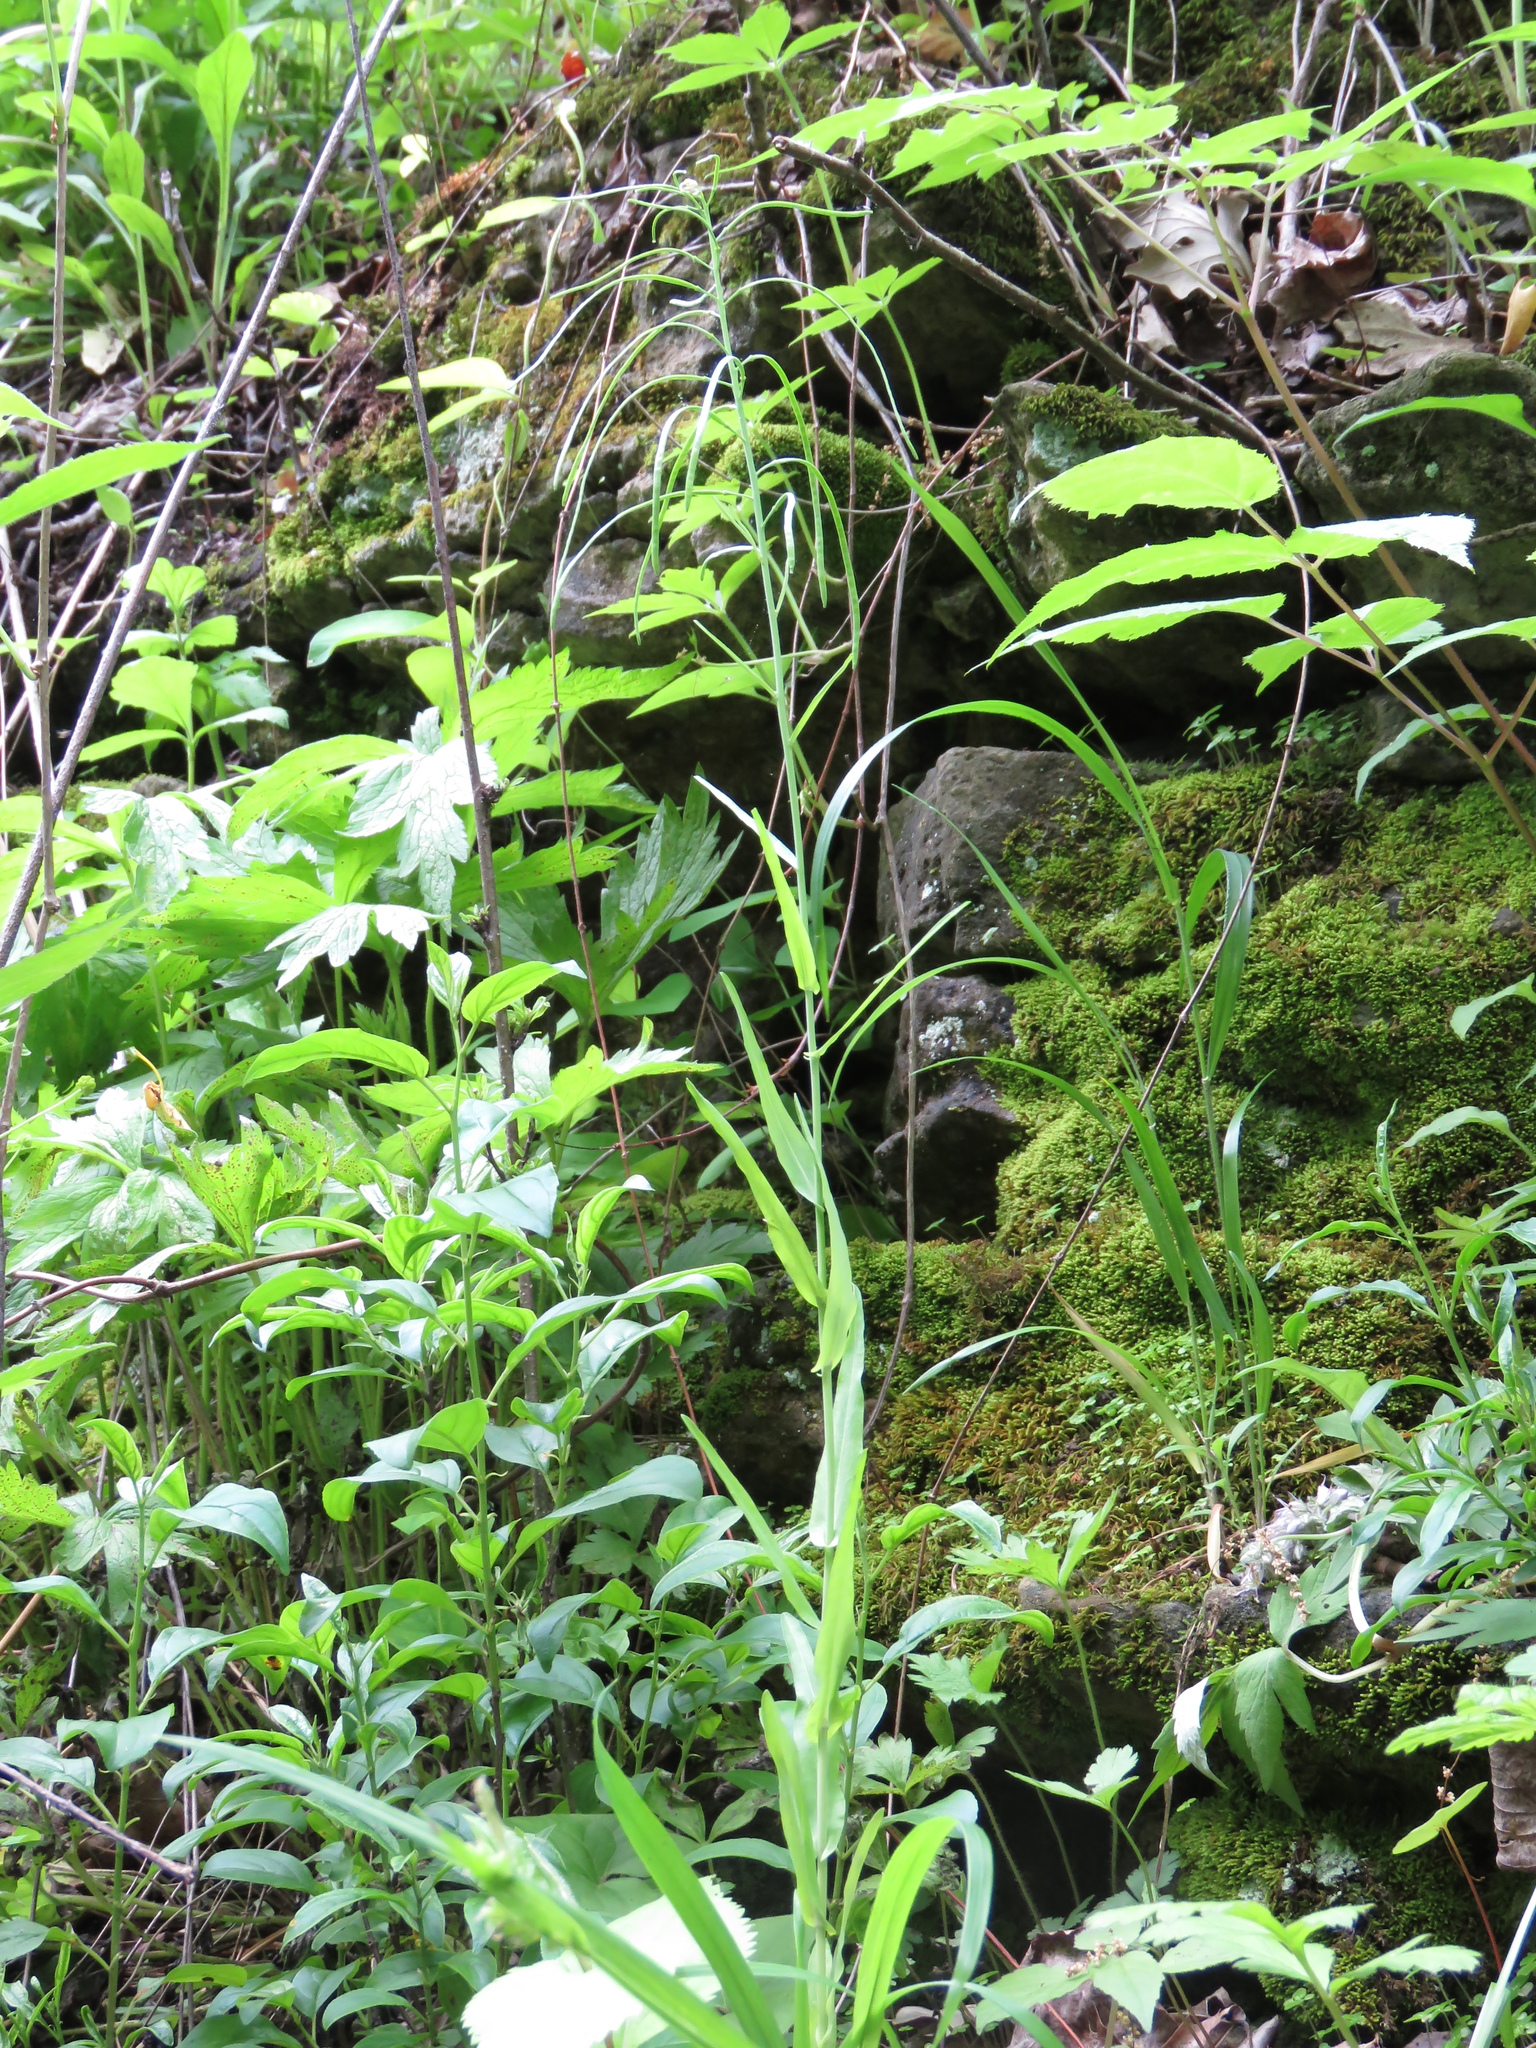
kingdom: Plantae
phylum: Tracheophyta
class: Magnoliopsida
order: Brassicales
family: Brassicaceae
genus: Borodinia
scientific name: Borodinia laevigata
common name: Smooth rockcress
